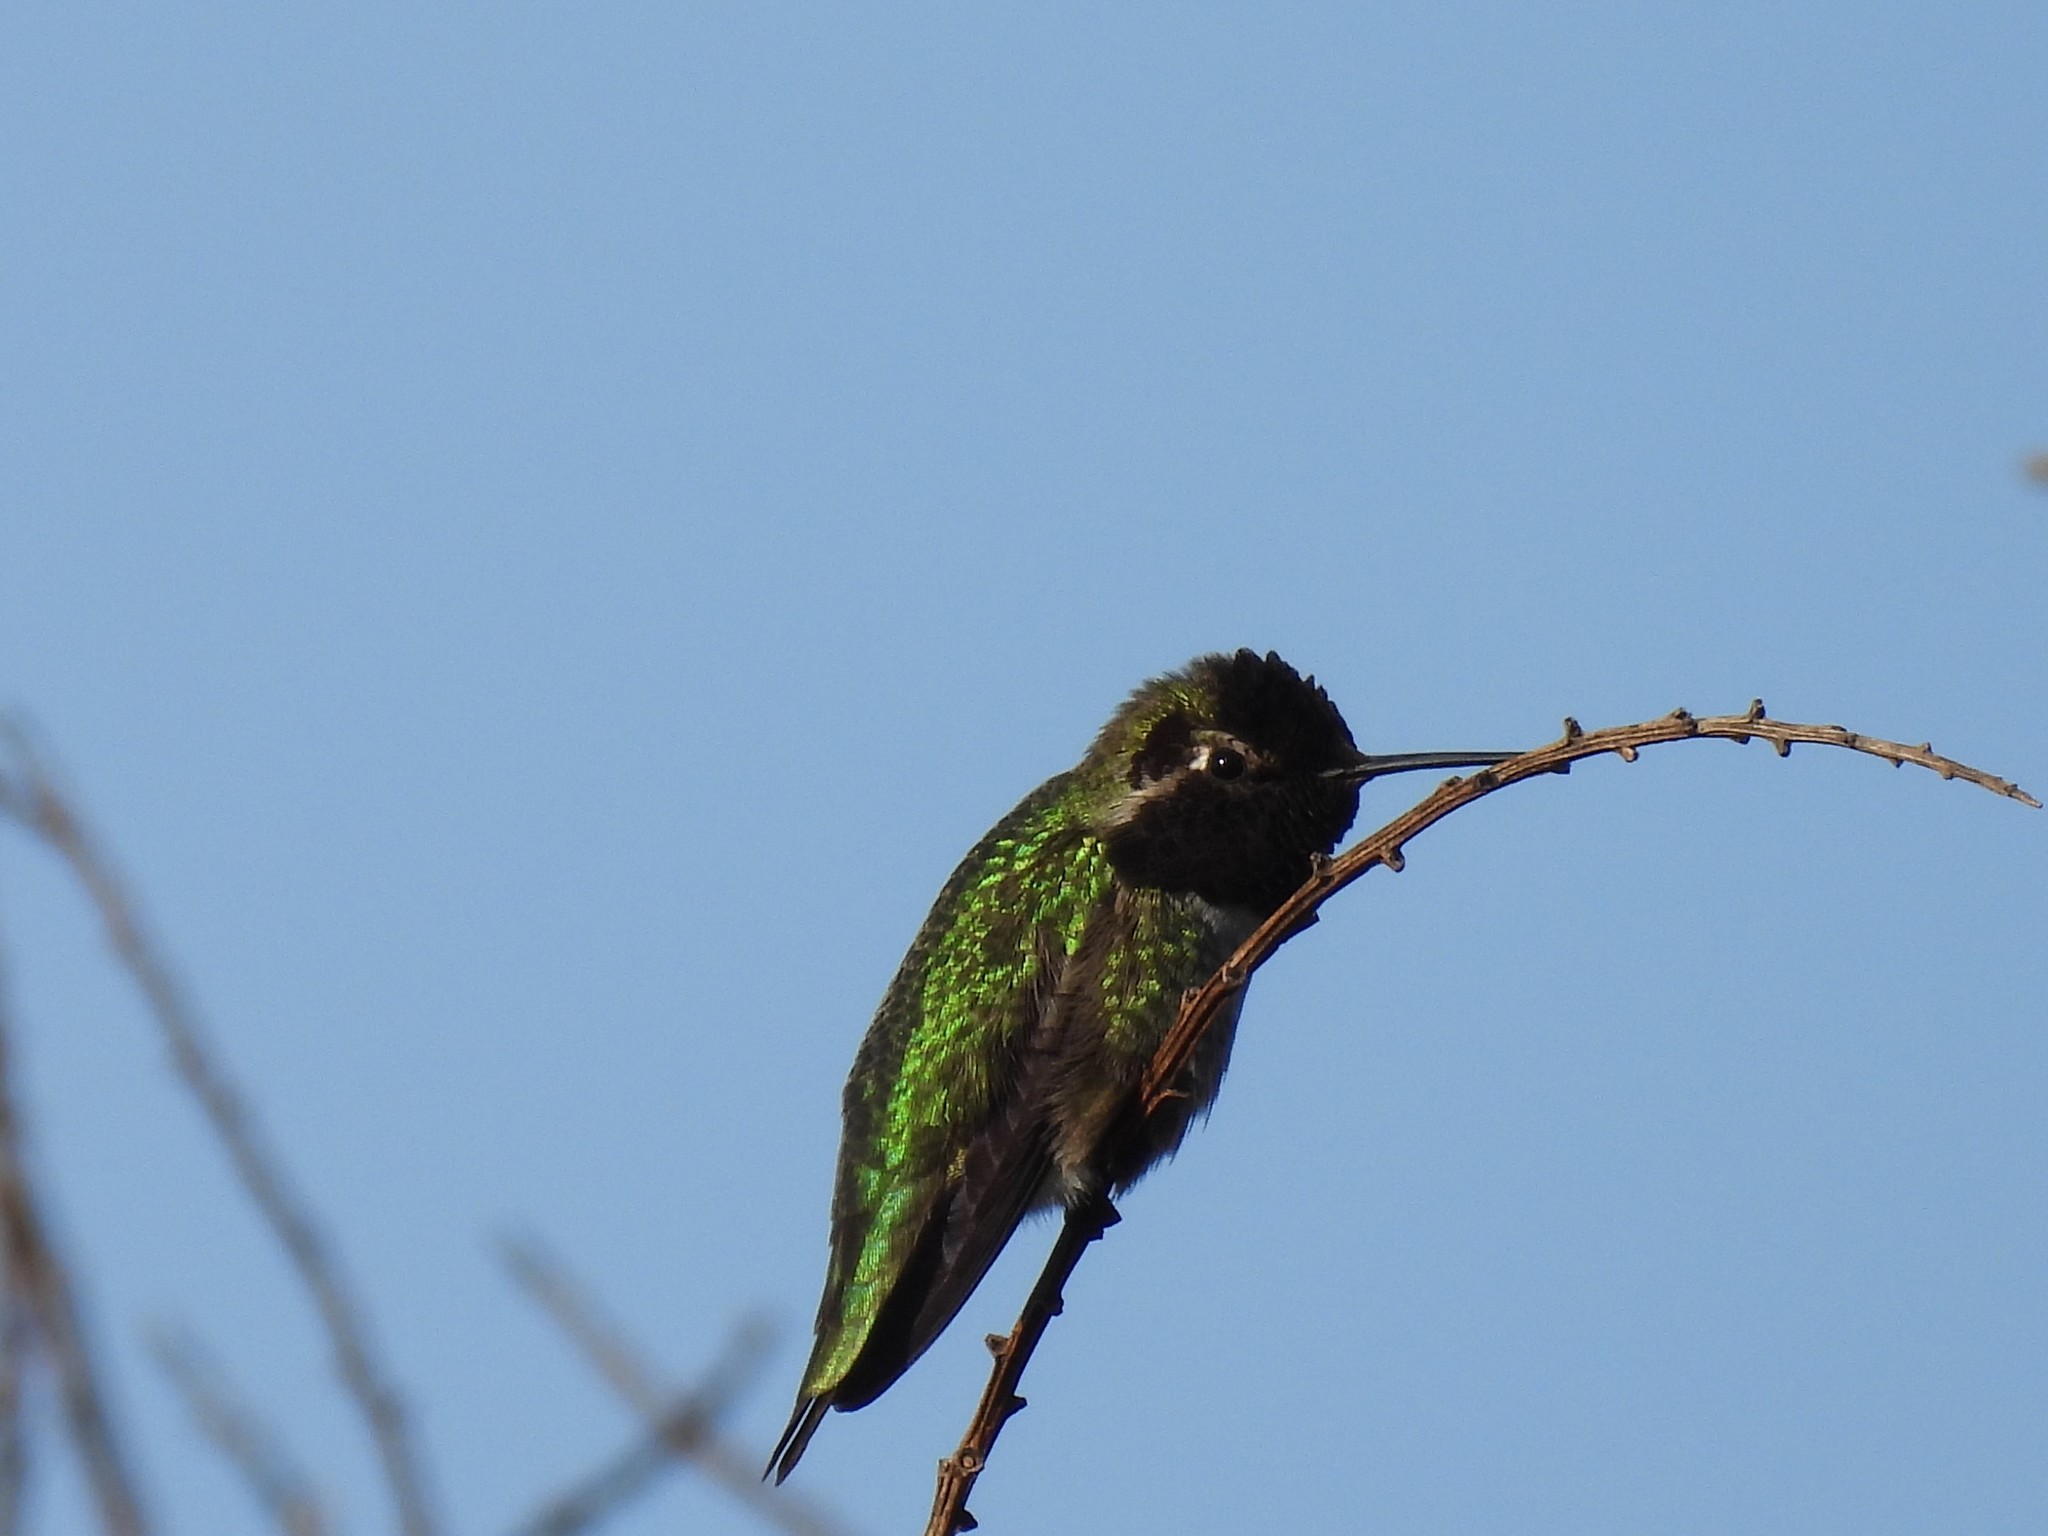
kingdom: Animalia
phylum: Chordata
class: Aves
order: Apodiformes
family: Trochilidae
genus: Calypte
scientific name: Calypte anna
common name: Anna's hummingbird
